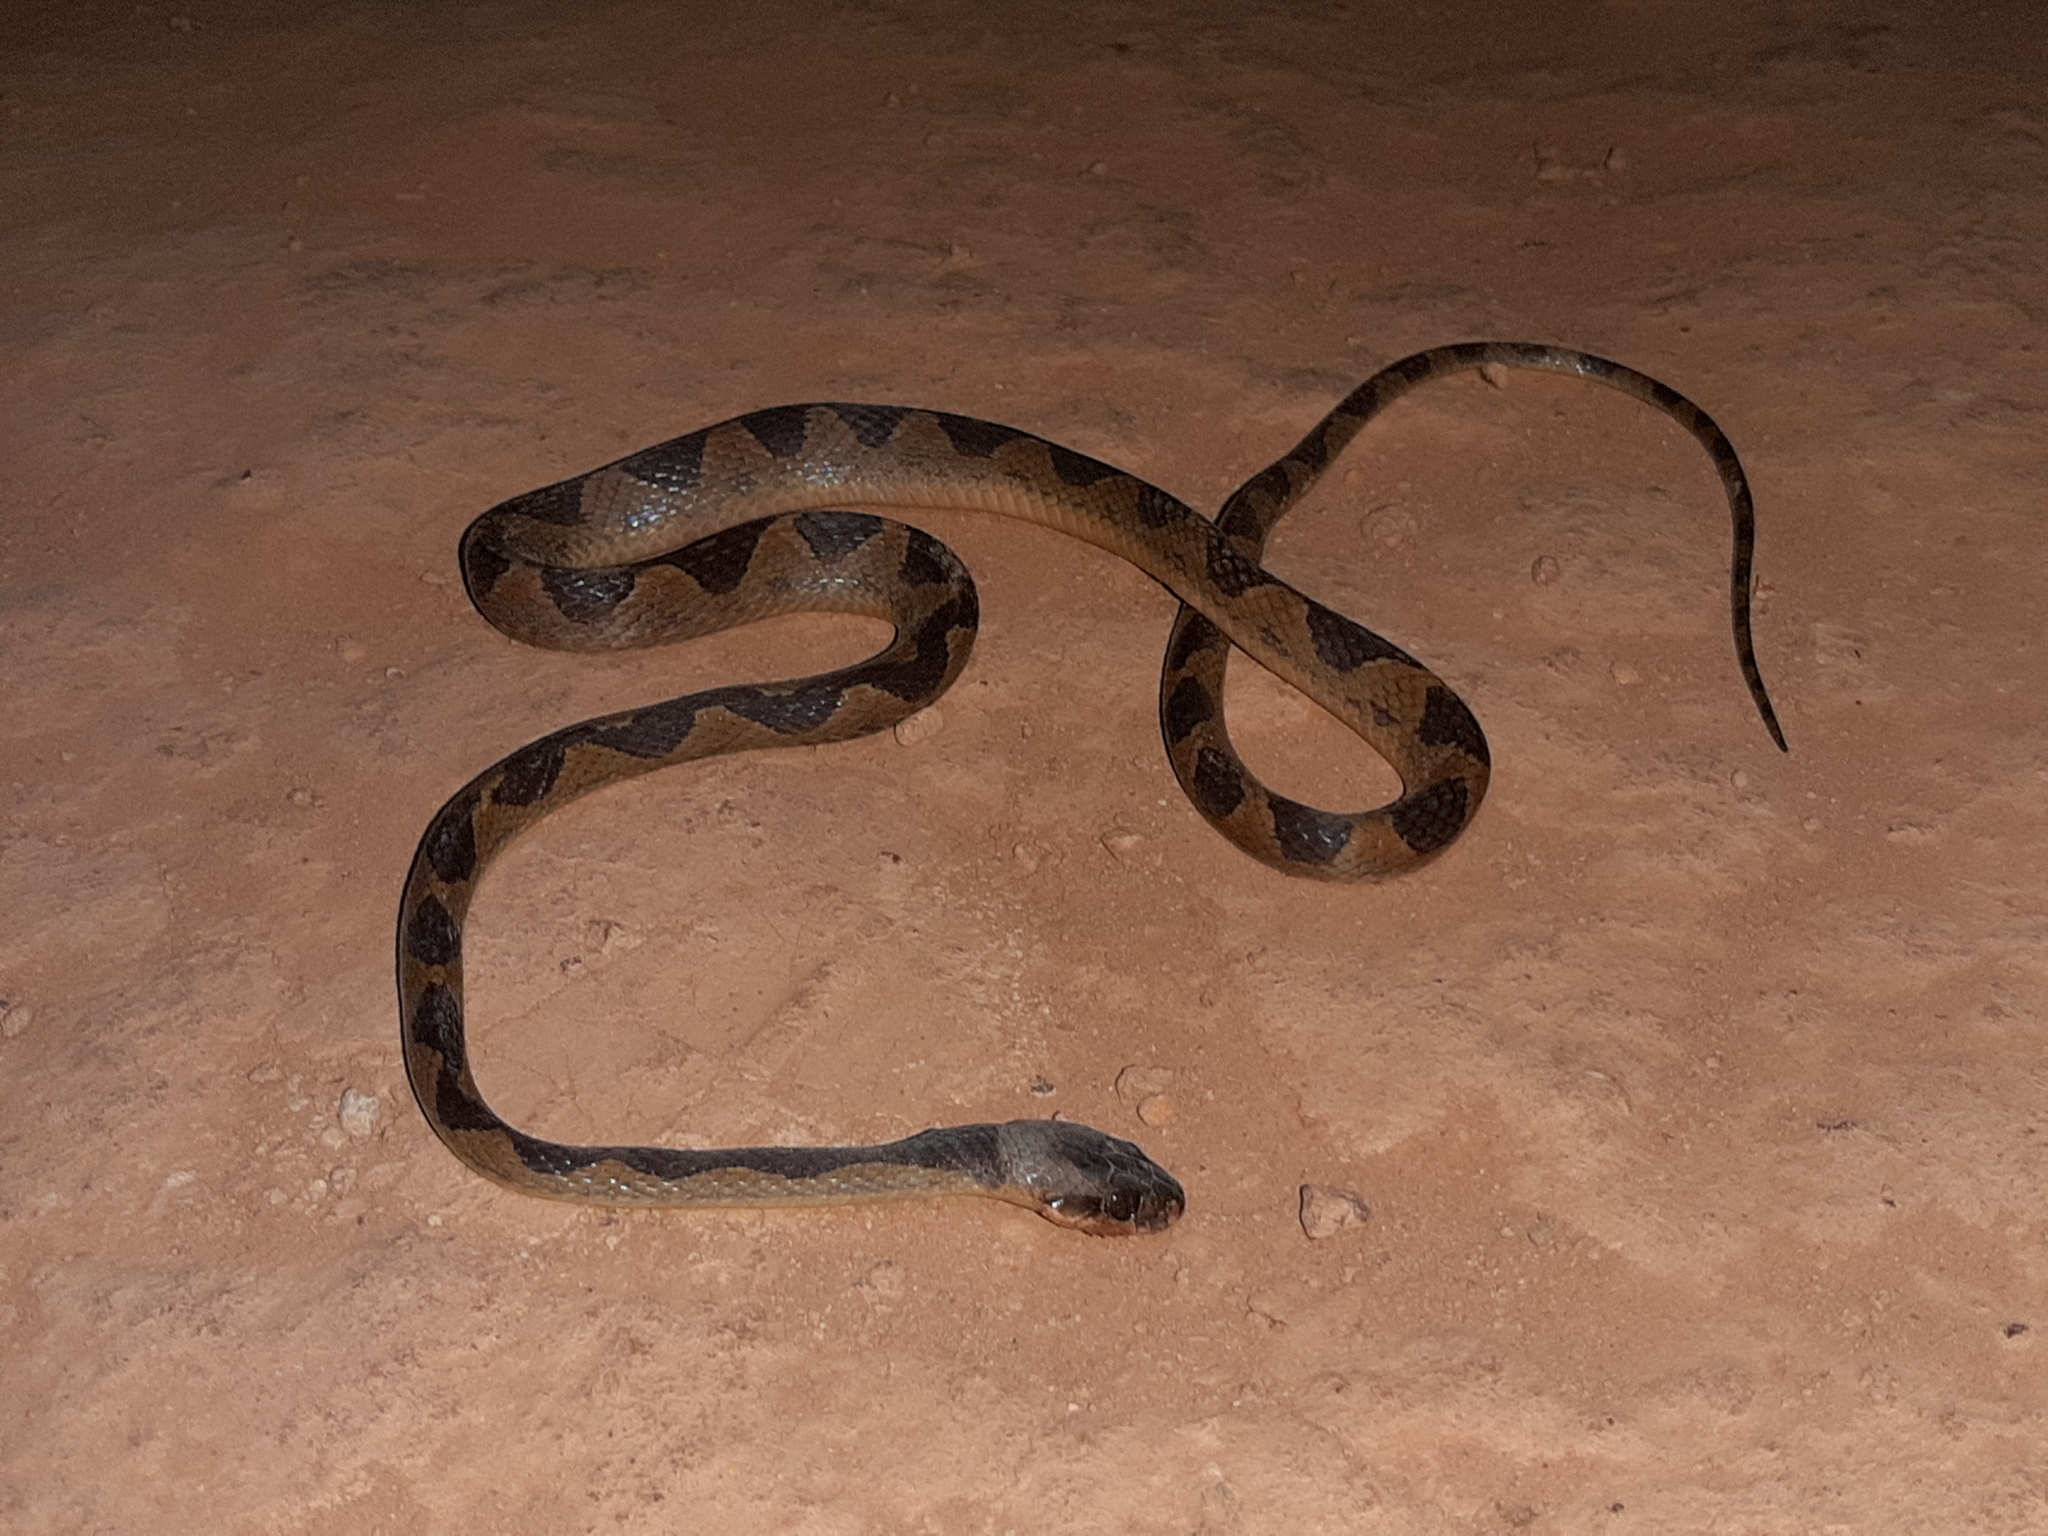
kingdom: Animalia
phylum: Chordata
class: Squamata
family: Colubridae
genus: Leptodeira
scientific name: Leptodeira annulata
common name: Banded cat-eyed snake
